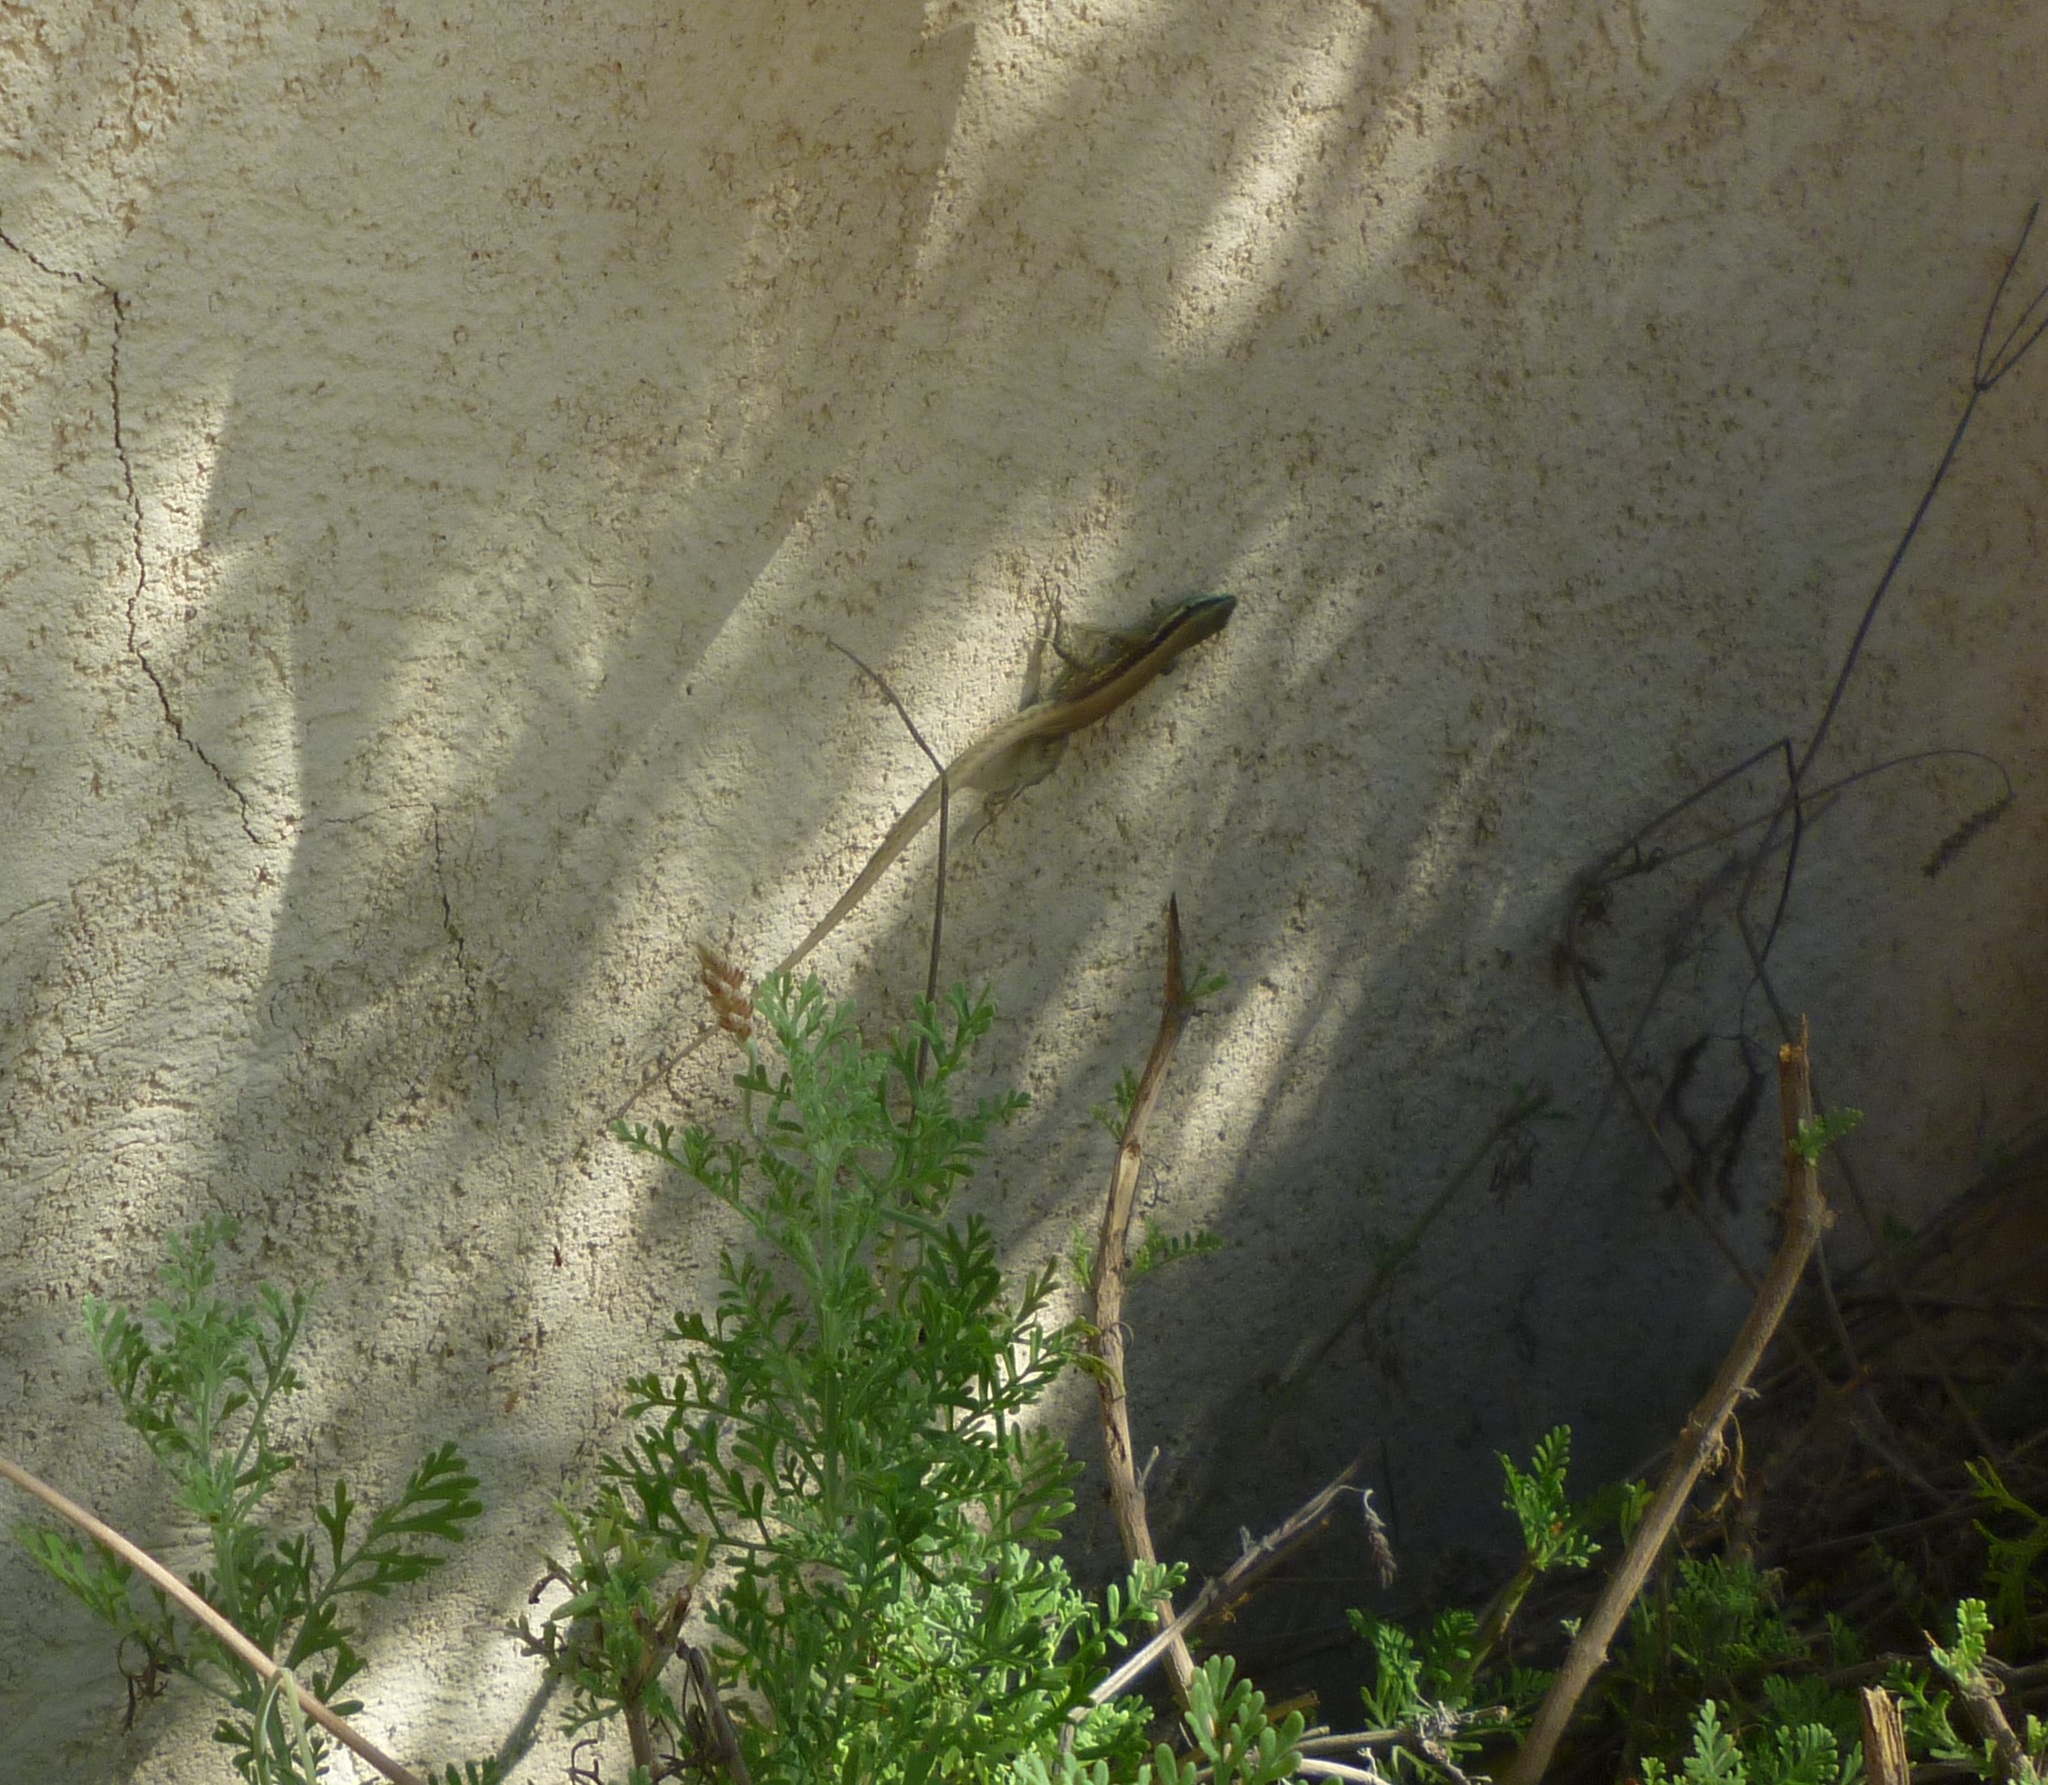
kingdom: Animalia
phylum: Chordata
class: Squamata
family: Lacertidae
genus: Phoenicolacerta
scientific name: Phoenicolacerta laevis
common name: Lebanon lizard
